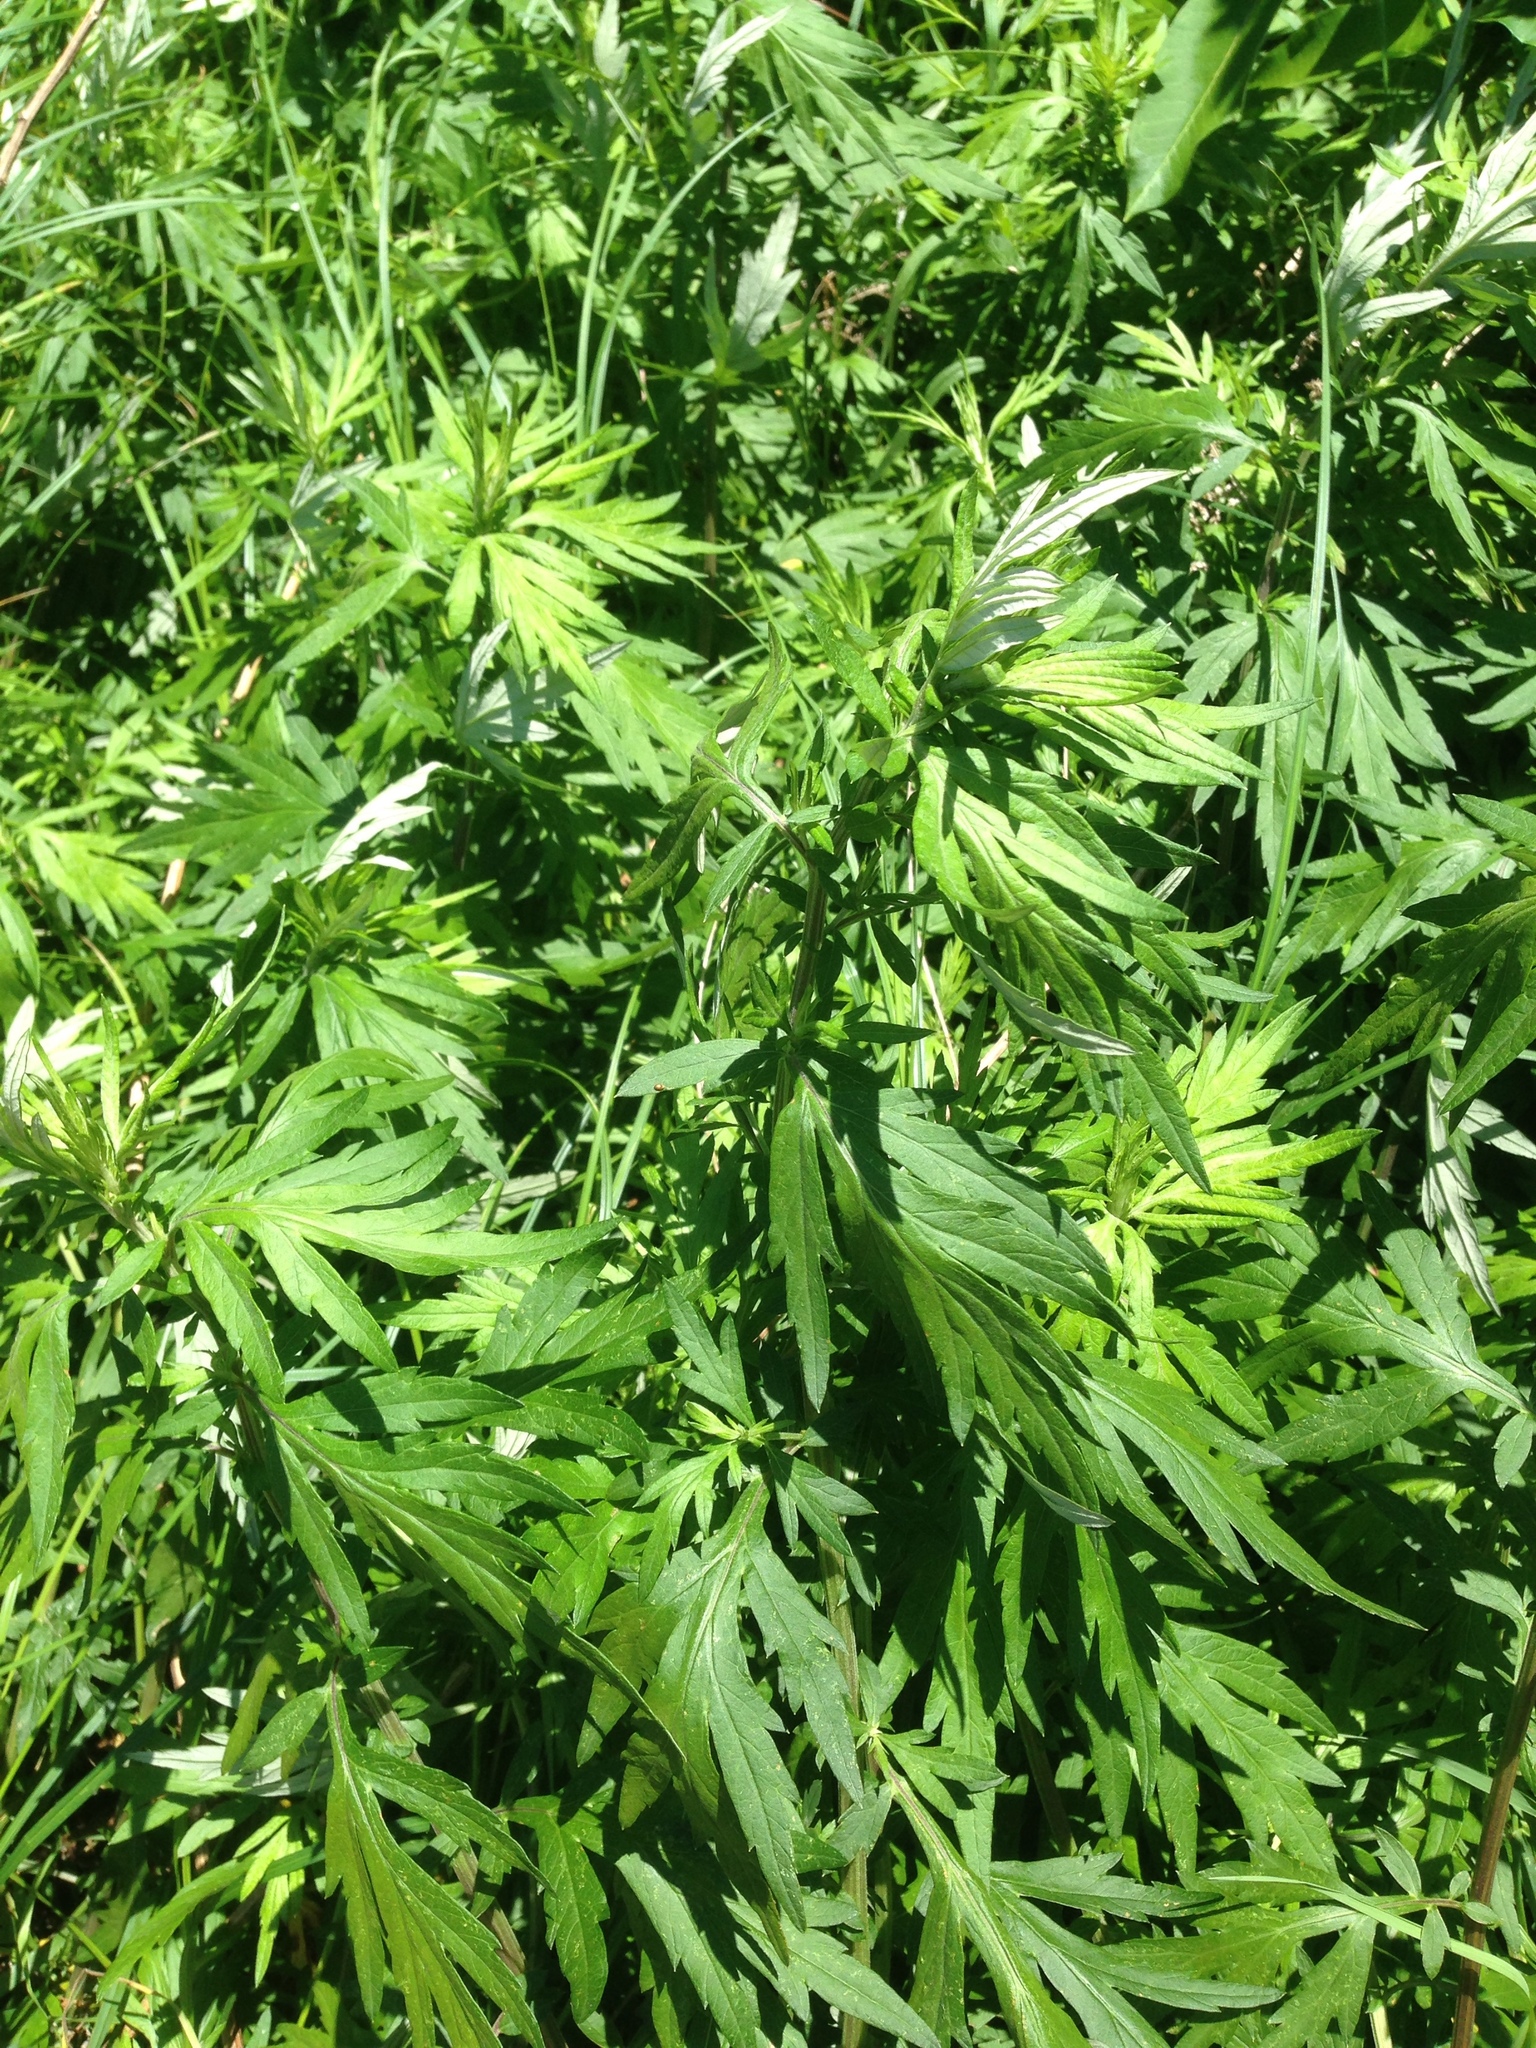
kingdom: Plantae
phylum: Tracheophyta
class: Magnoliopsida
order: Asterales
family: Asteraceae
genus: Artemisia
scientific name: Artemisia vulgaris
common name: Mugwort
